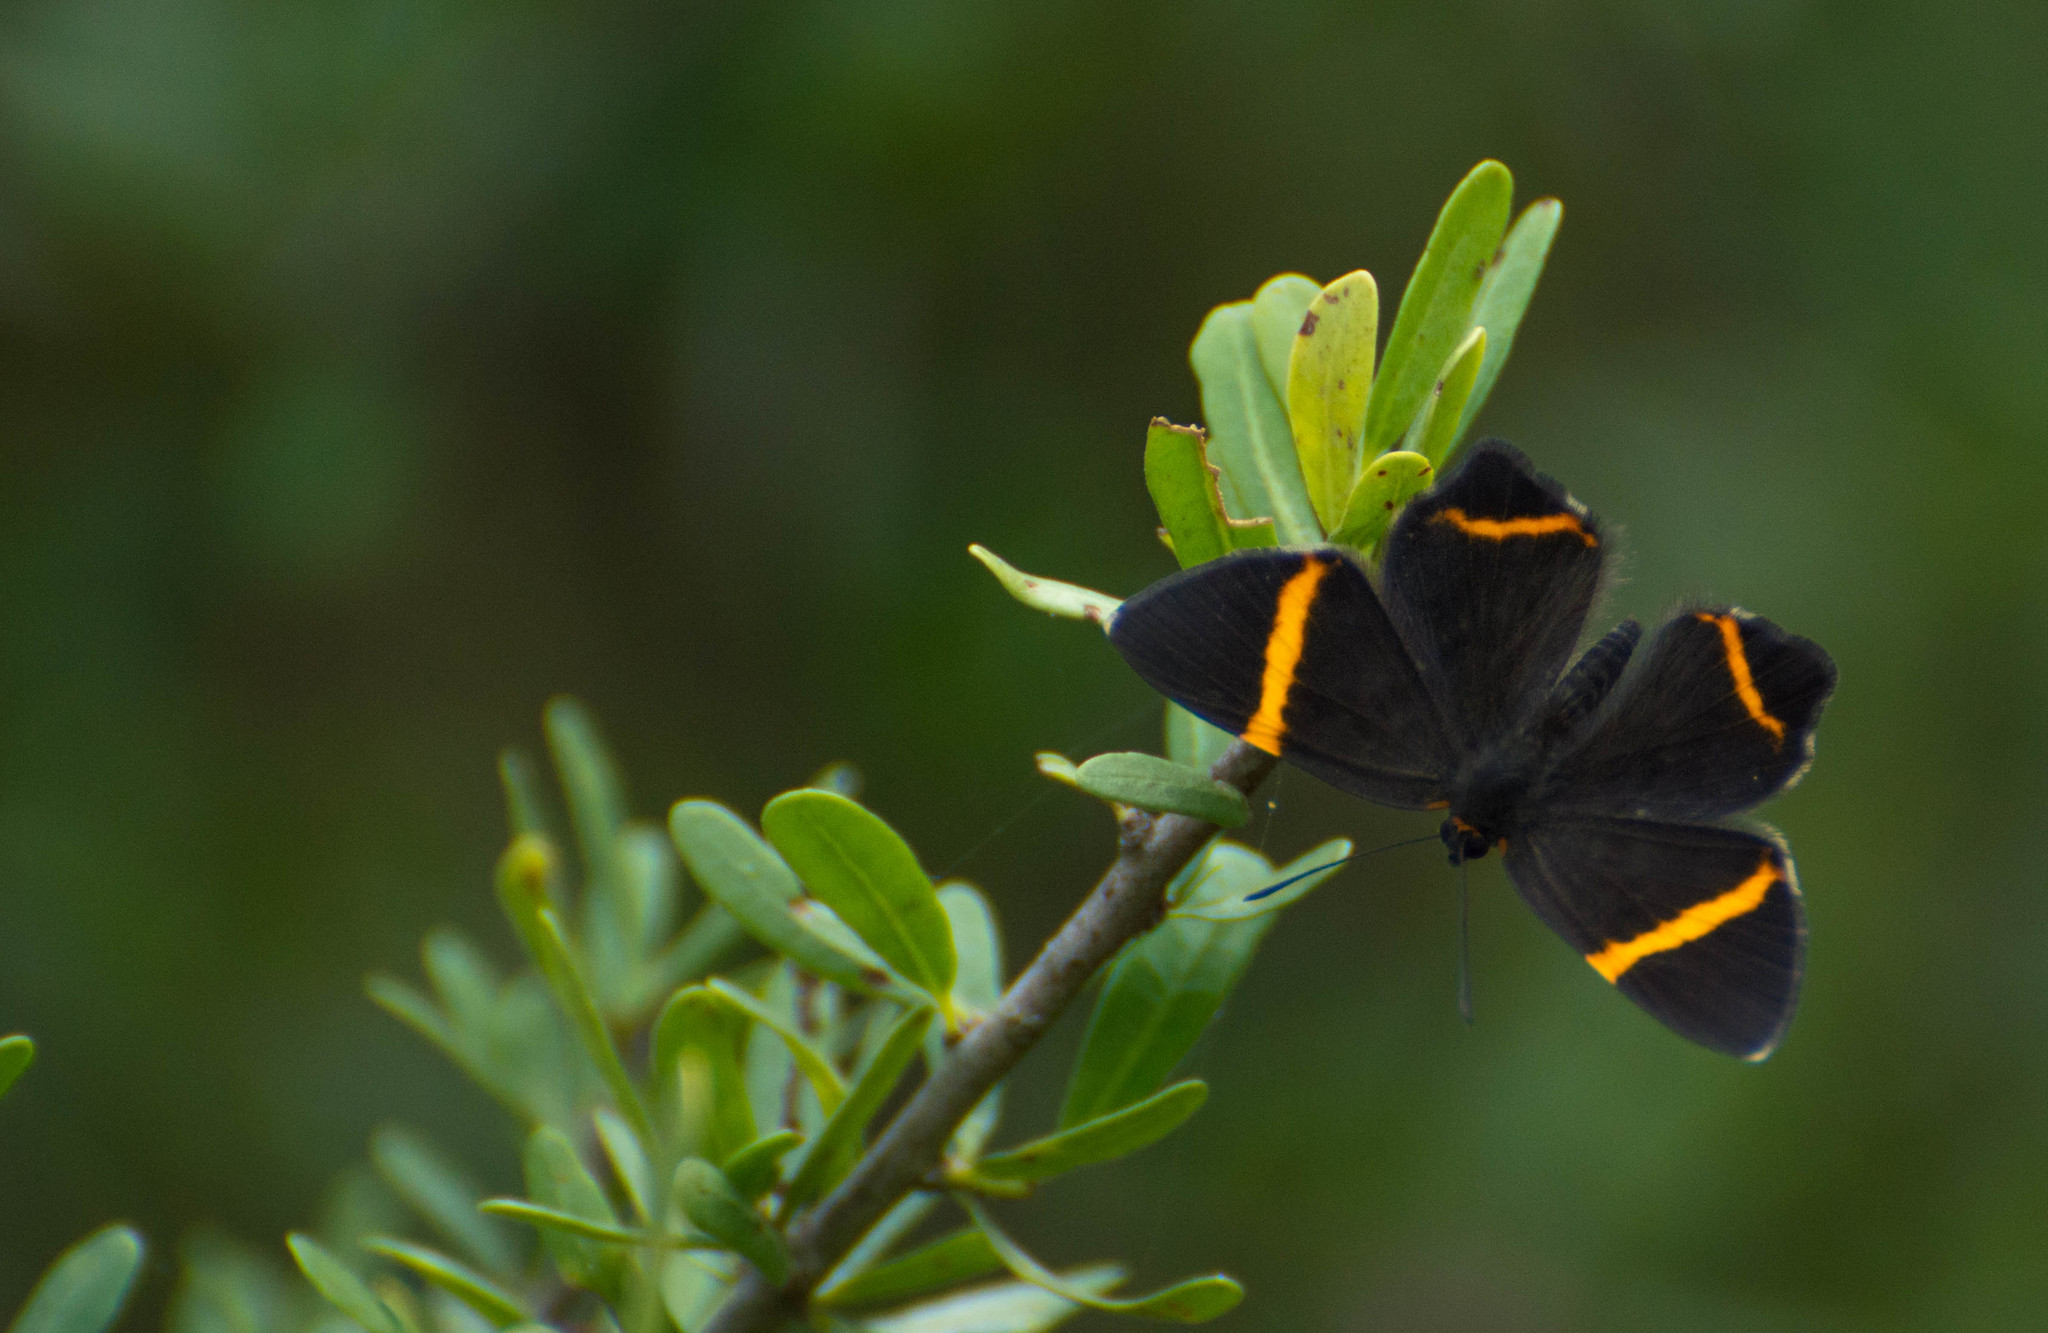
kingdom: Animalia
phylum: Arthropoda
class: Insecta
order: Lepidoptera
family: Riodinidae
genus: Riodina
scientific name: Riodina lysippoides
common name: Little dancer metalmark
